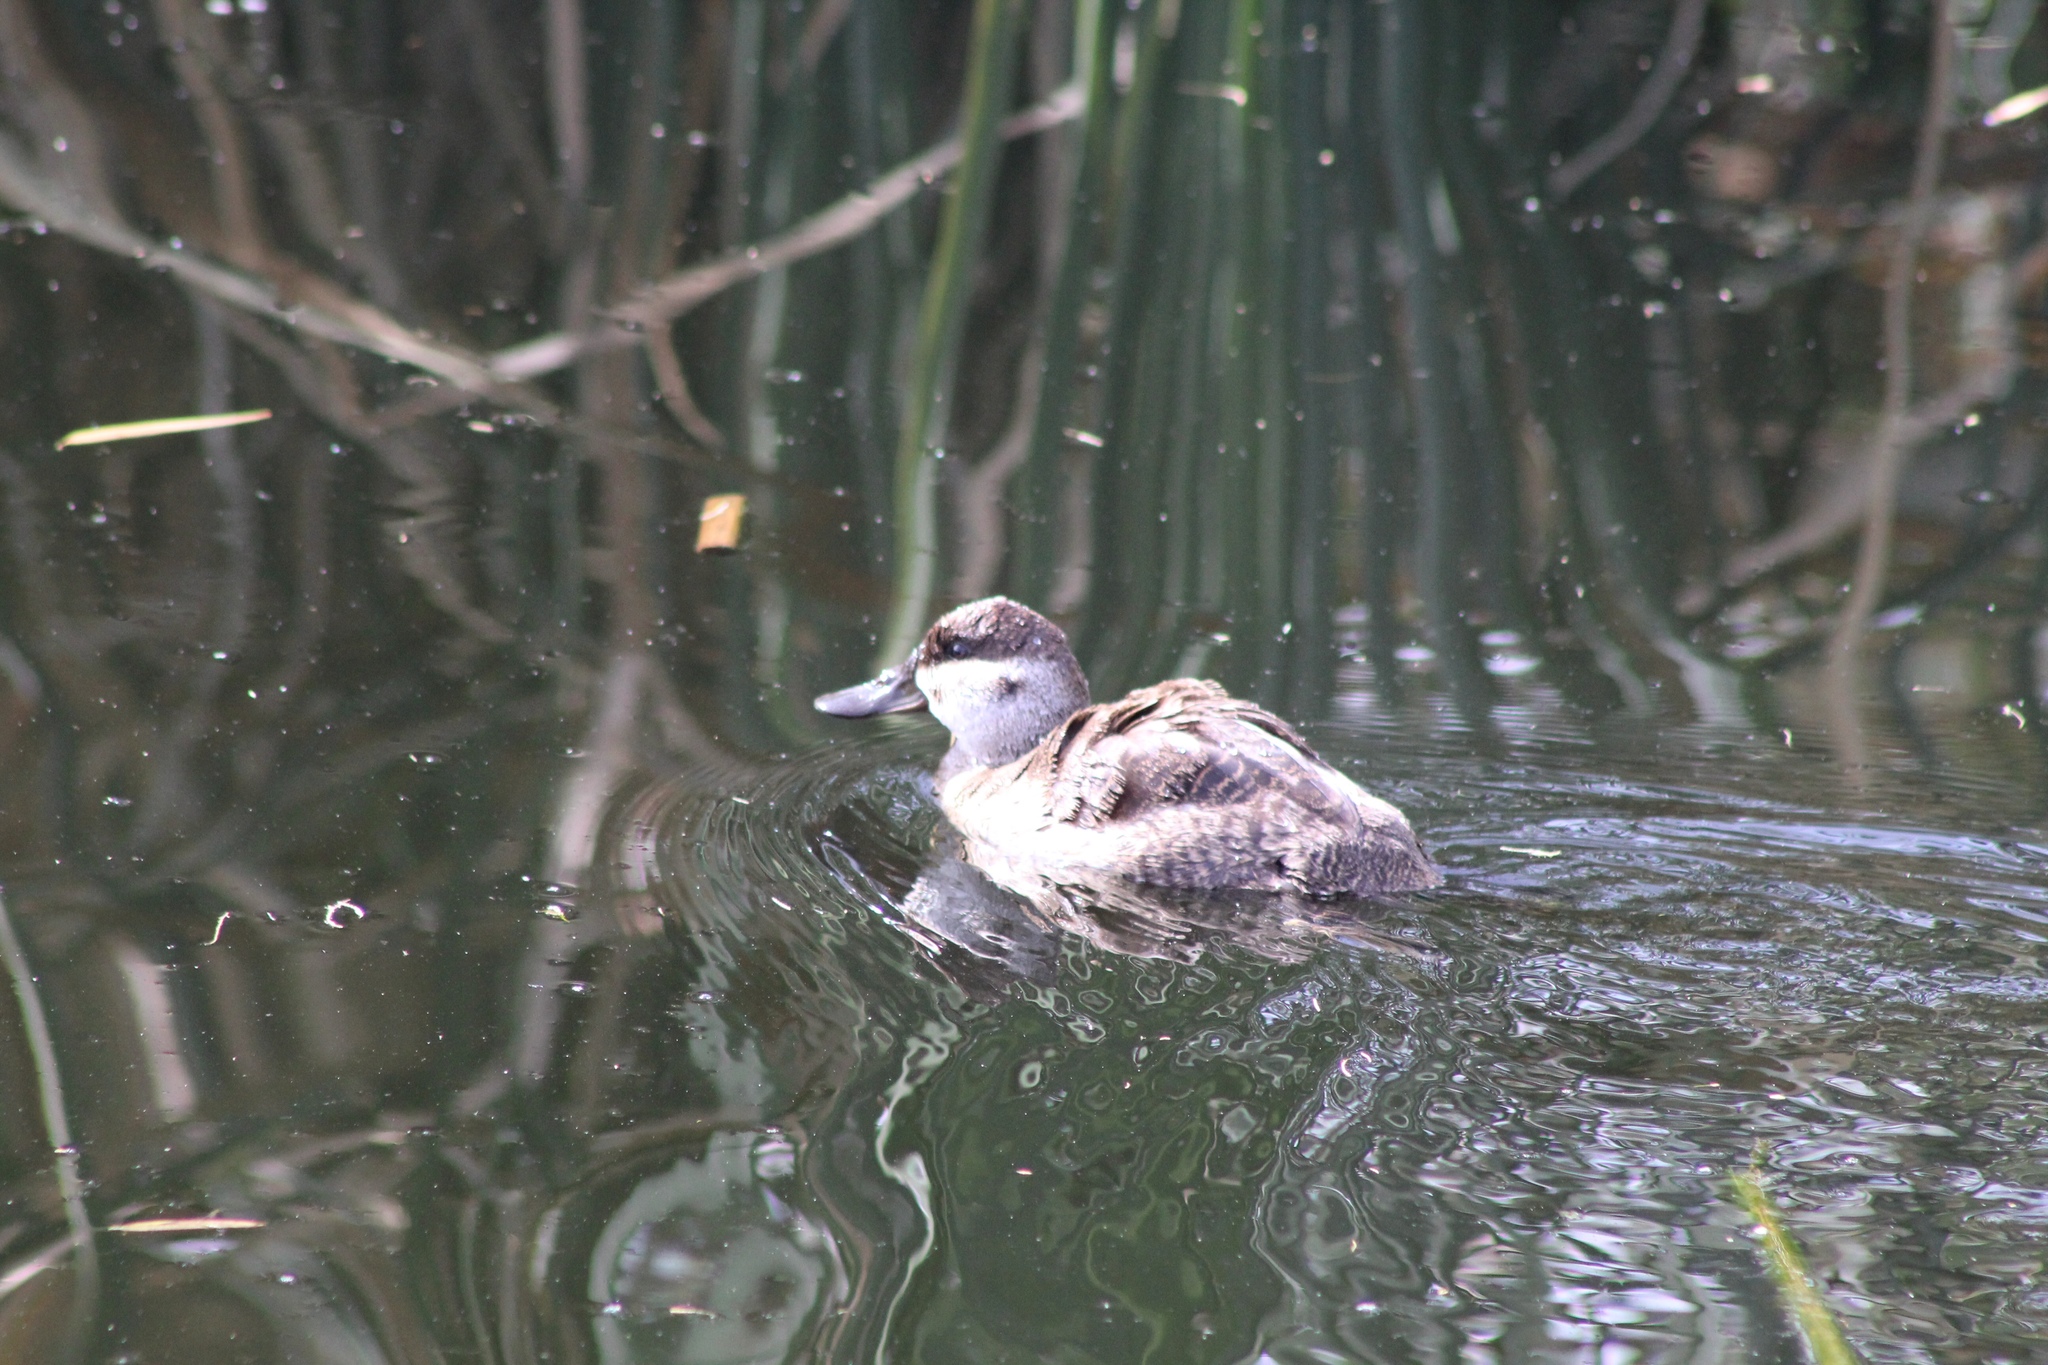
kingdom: Animalia
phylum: Chordata
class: Aves
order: Anseriformes
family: Anatidae
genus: Oxyura
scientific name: Oxyura jamaicensis
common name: Ruddy duck
